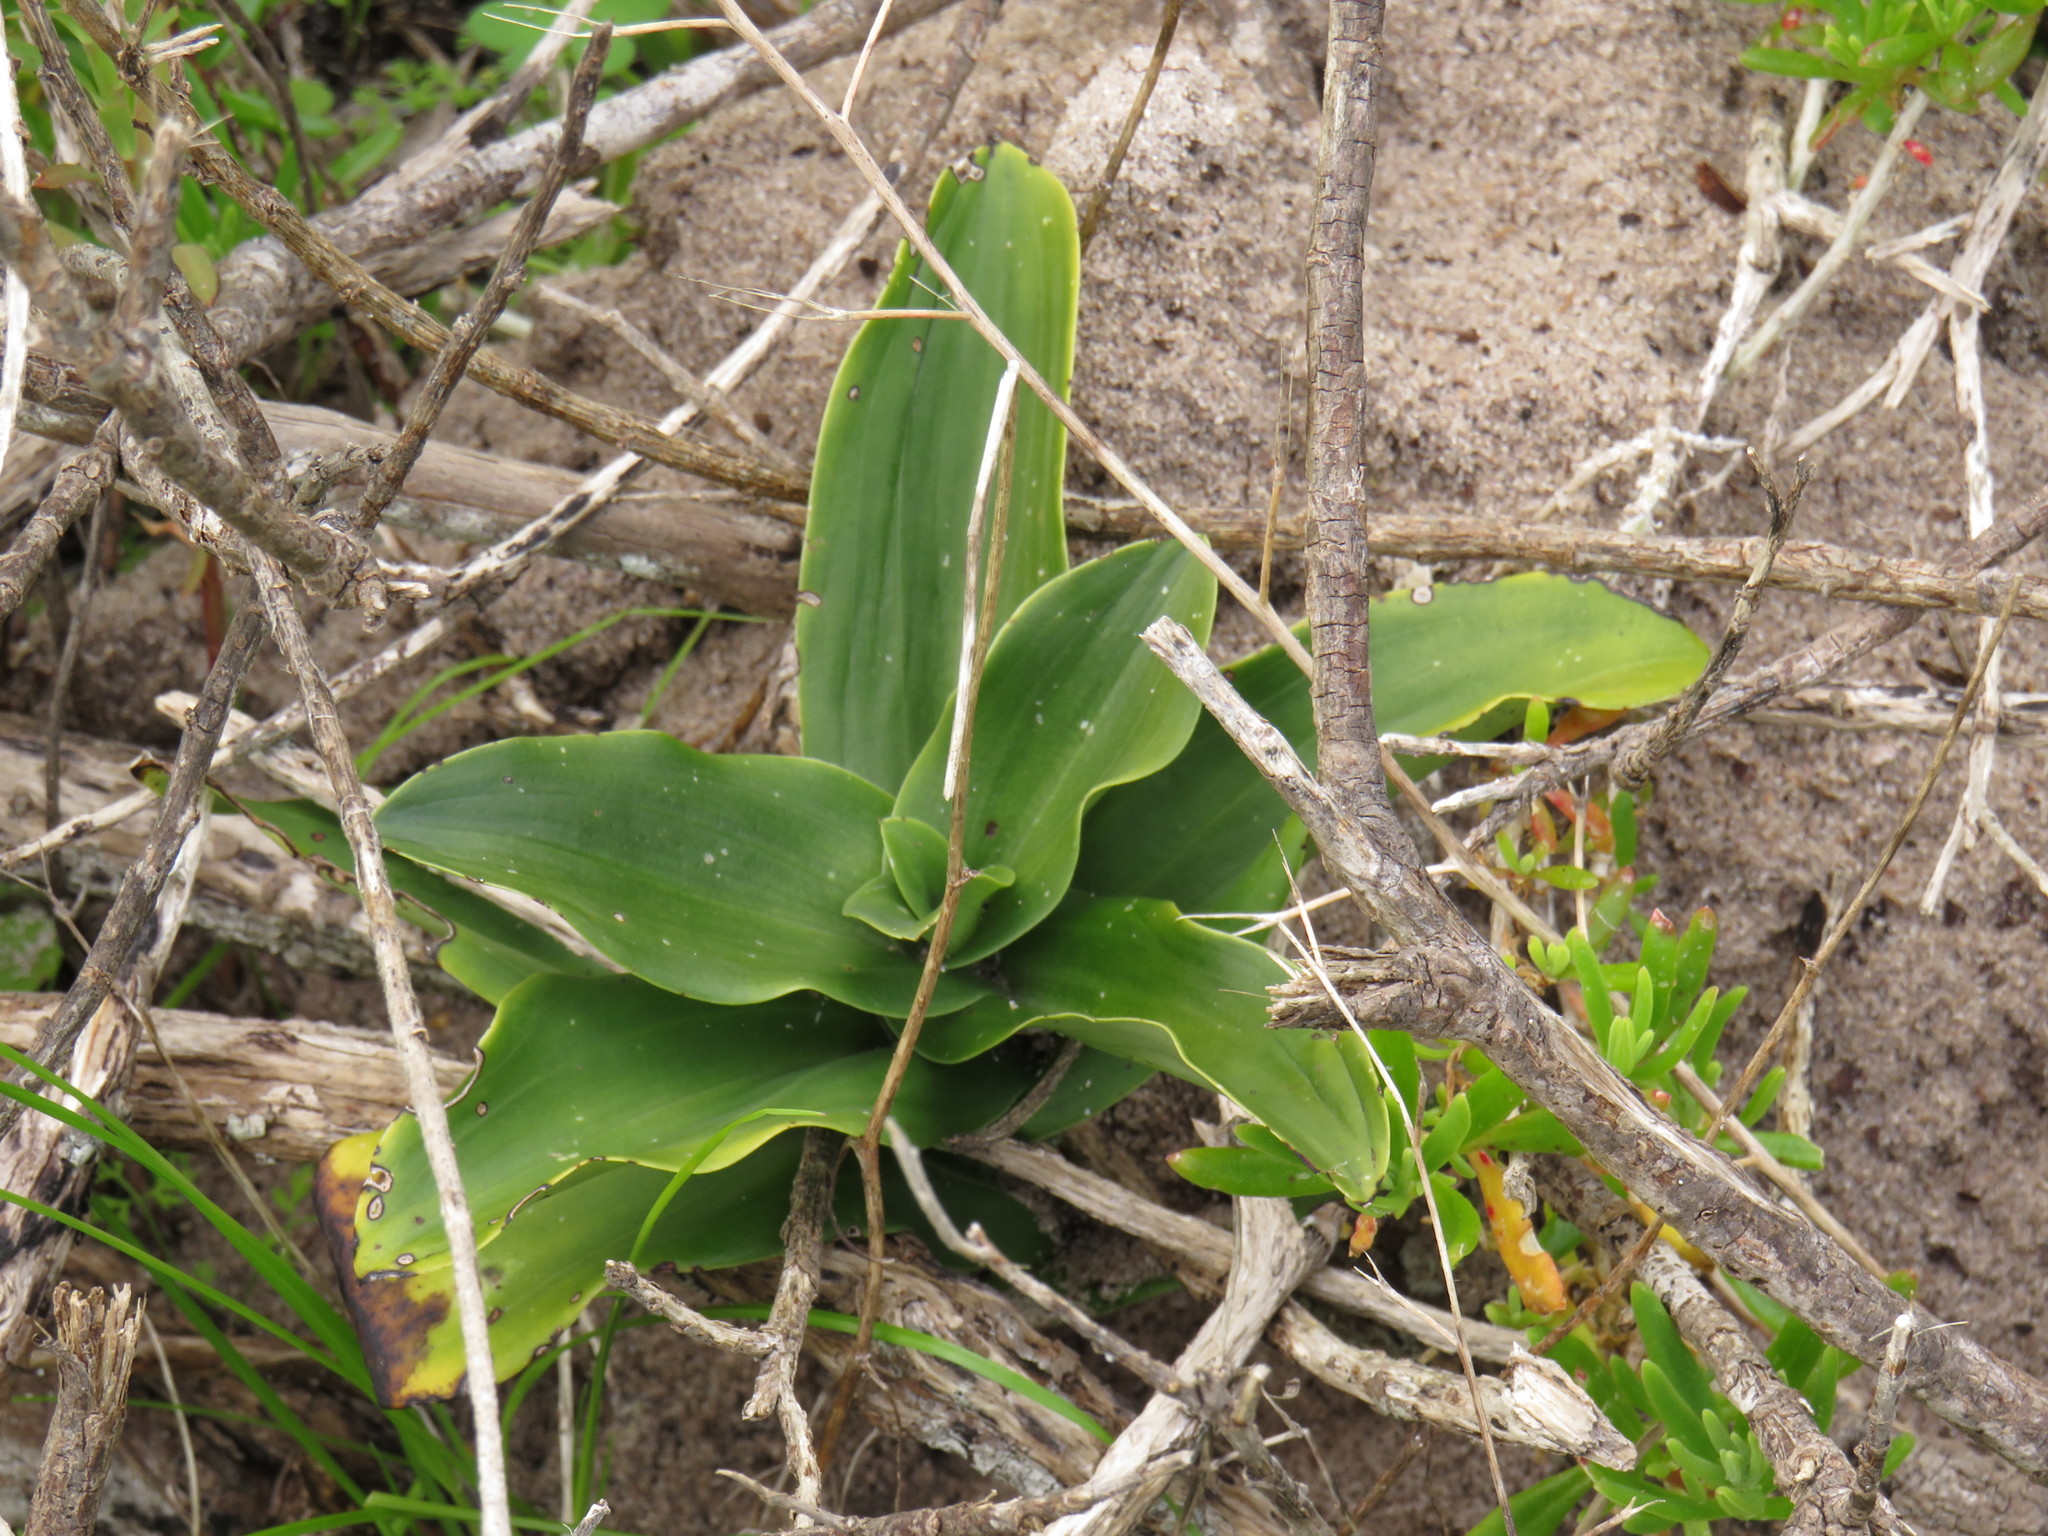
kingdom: Plantae
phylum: Tracheophyta
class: Liliopsida
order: Asparagales
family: Orchidaceae
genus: Bonatea
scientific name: Bonatea speciosa
